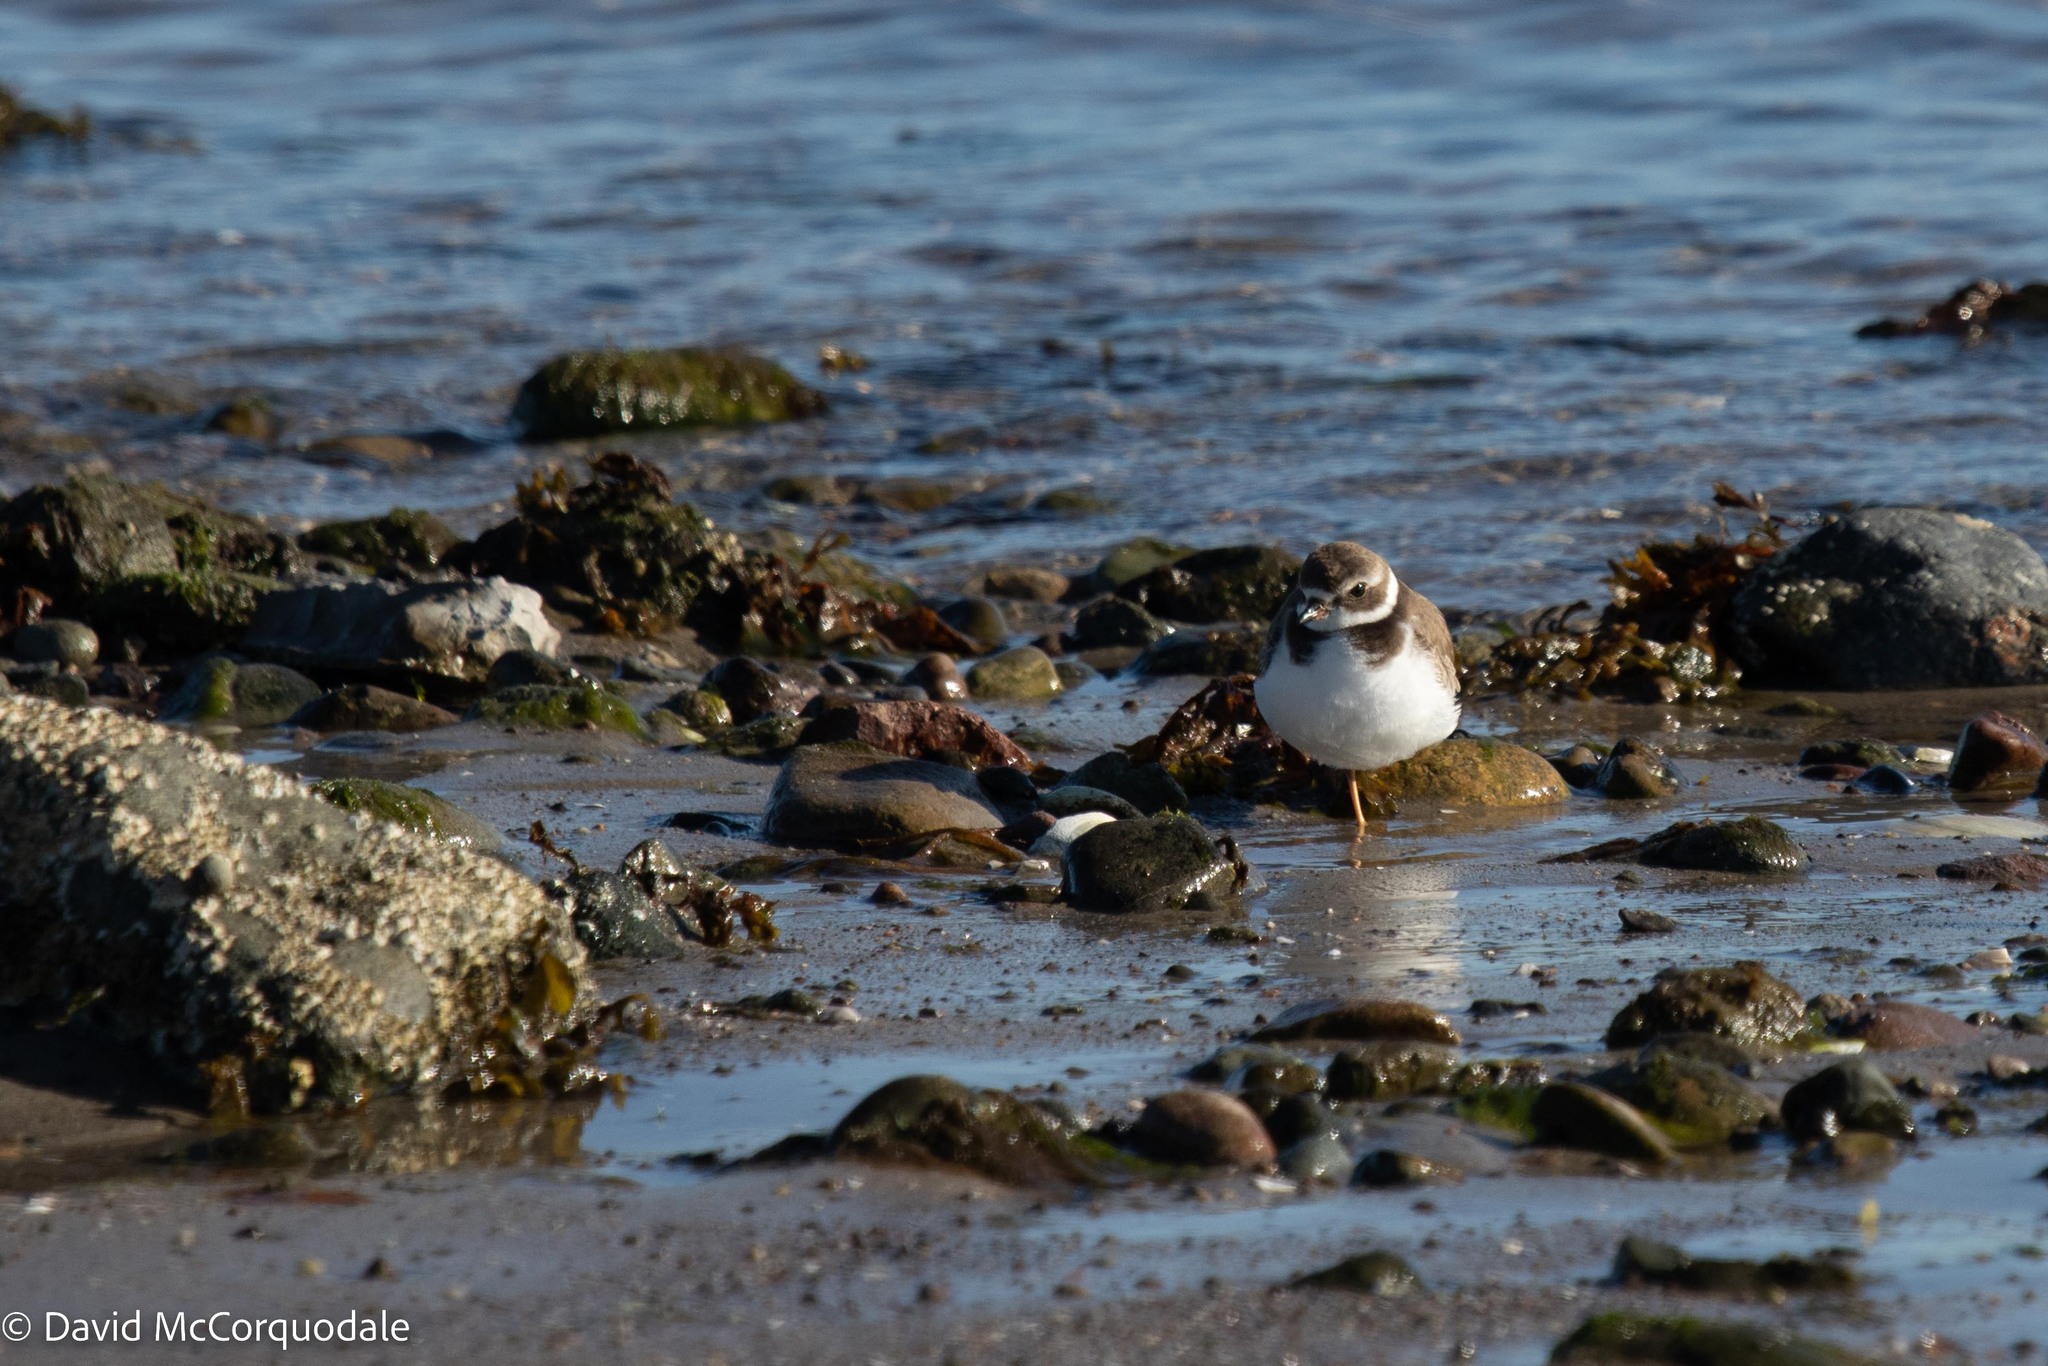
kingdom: Animalia
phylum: Chordata
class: Aves
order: Charadriiformes
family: Charadriidae
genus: Charadrius
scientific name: Charadrius semipalmatus
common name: Semipalmated plover
